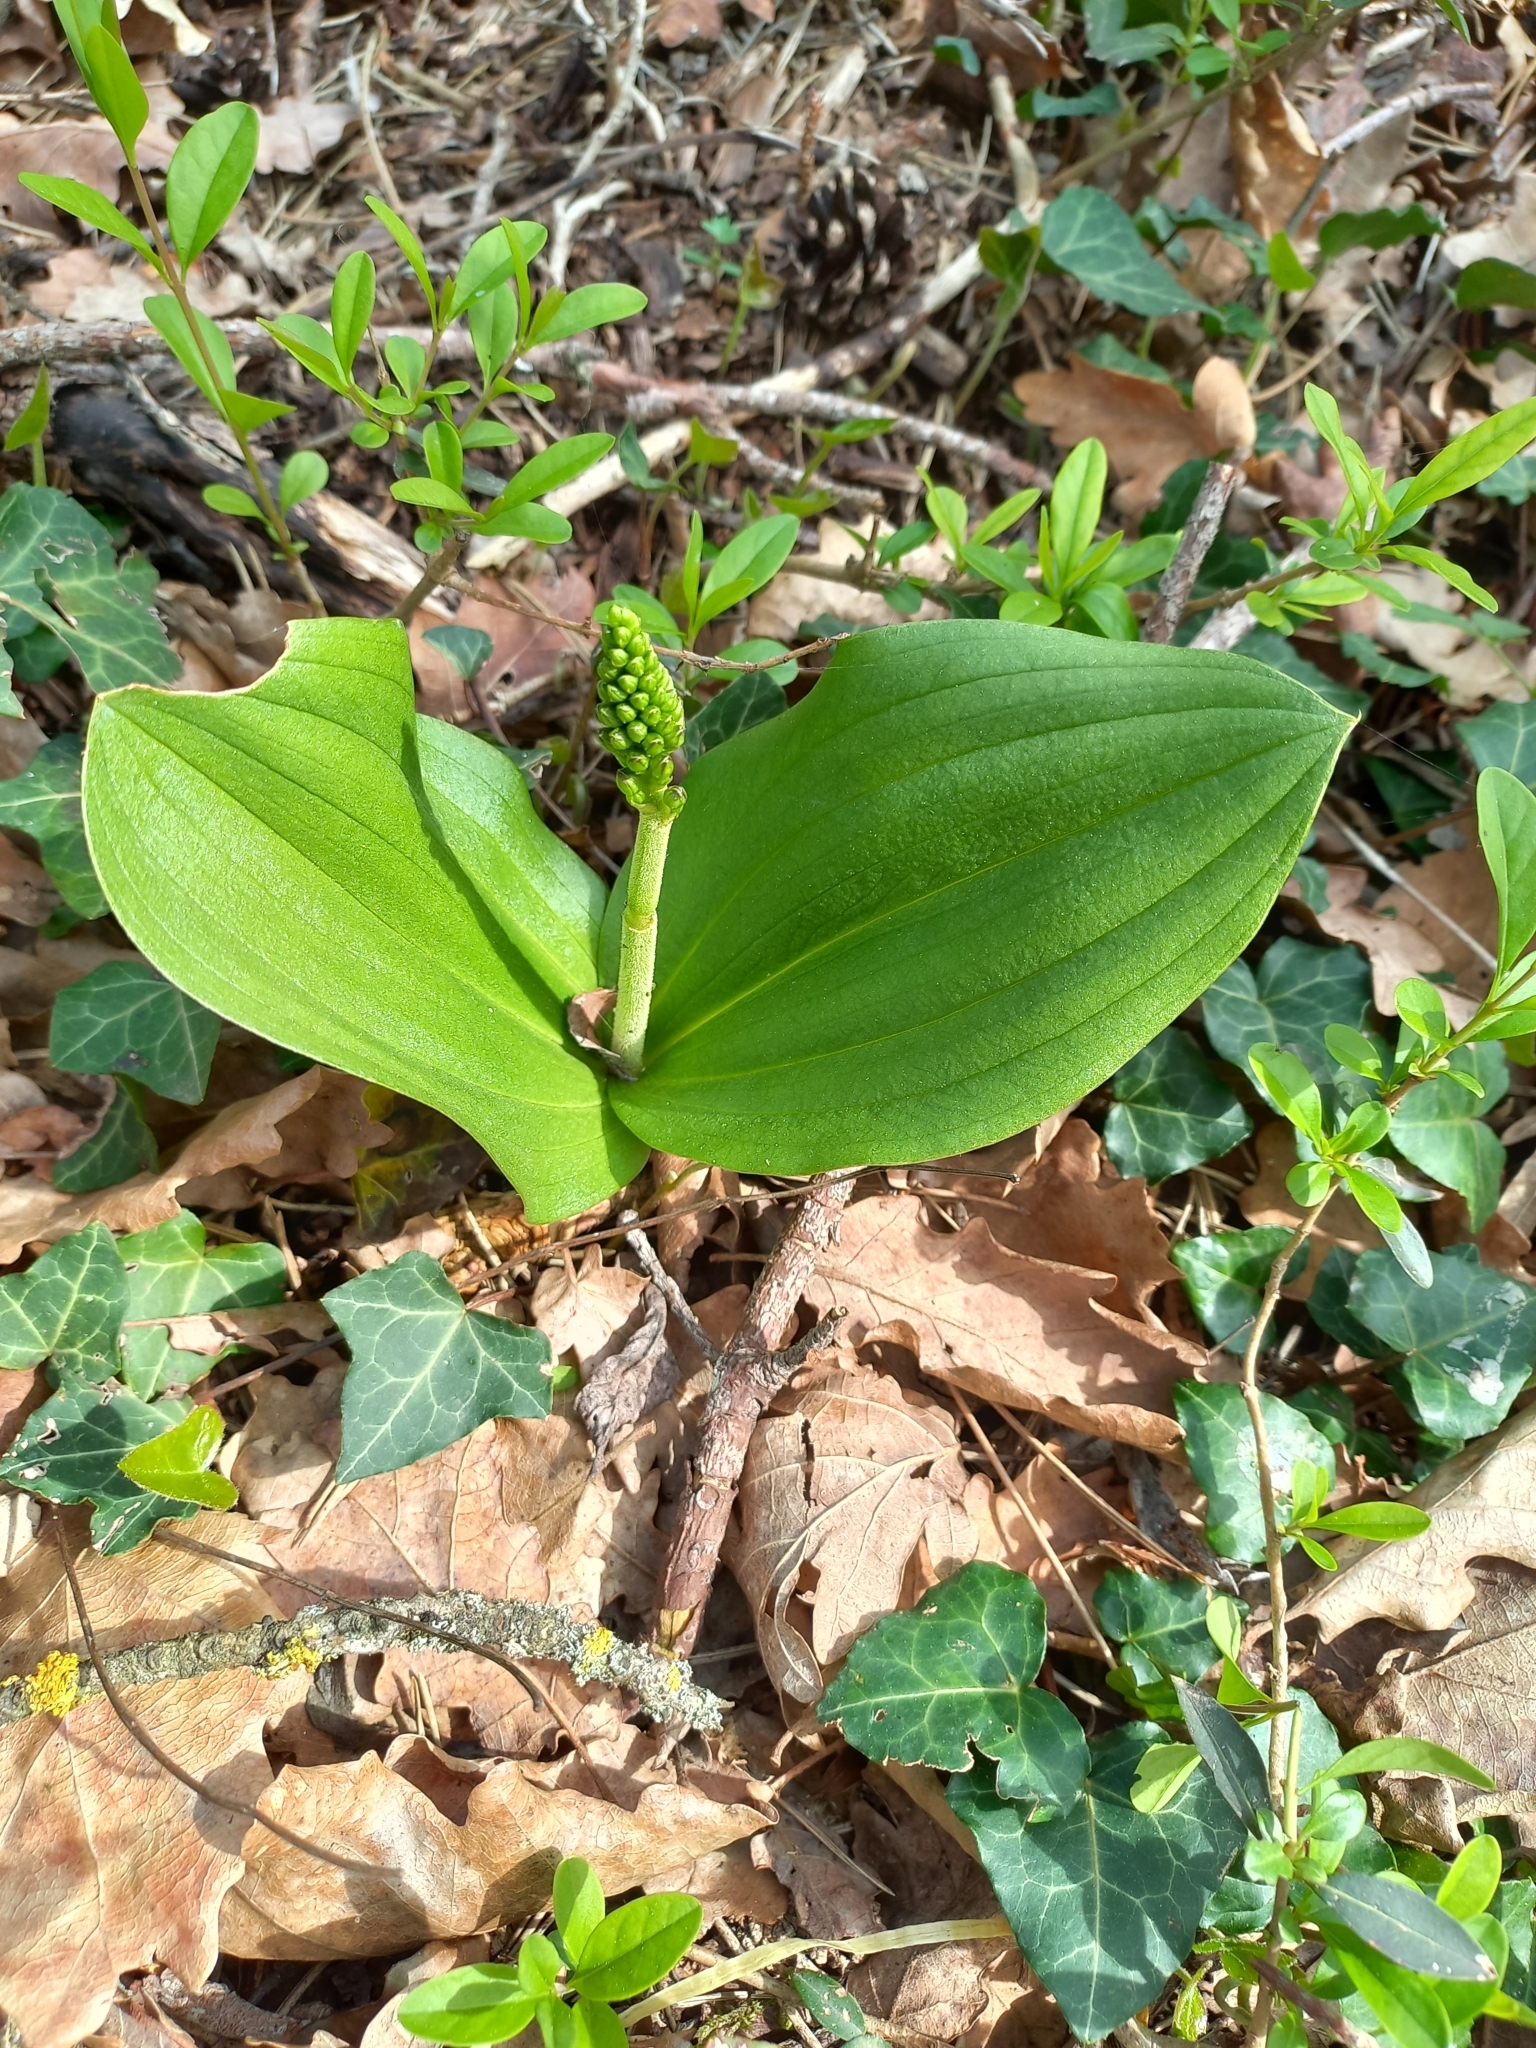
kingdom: Plantae
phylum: Tracheophyta
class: Liliopsida
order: Asparagales
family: Orchidaceae
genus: Neottia
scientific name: Neottia ovata
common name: Common twayblade
